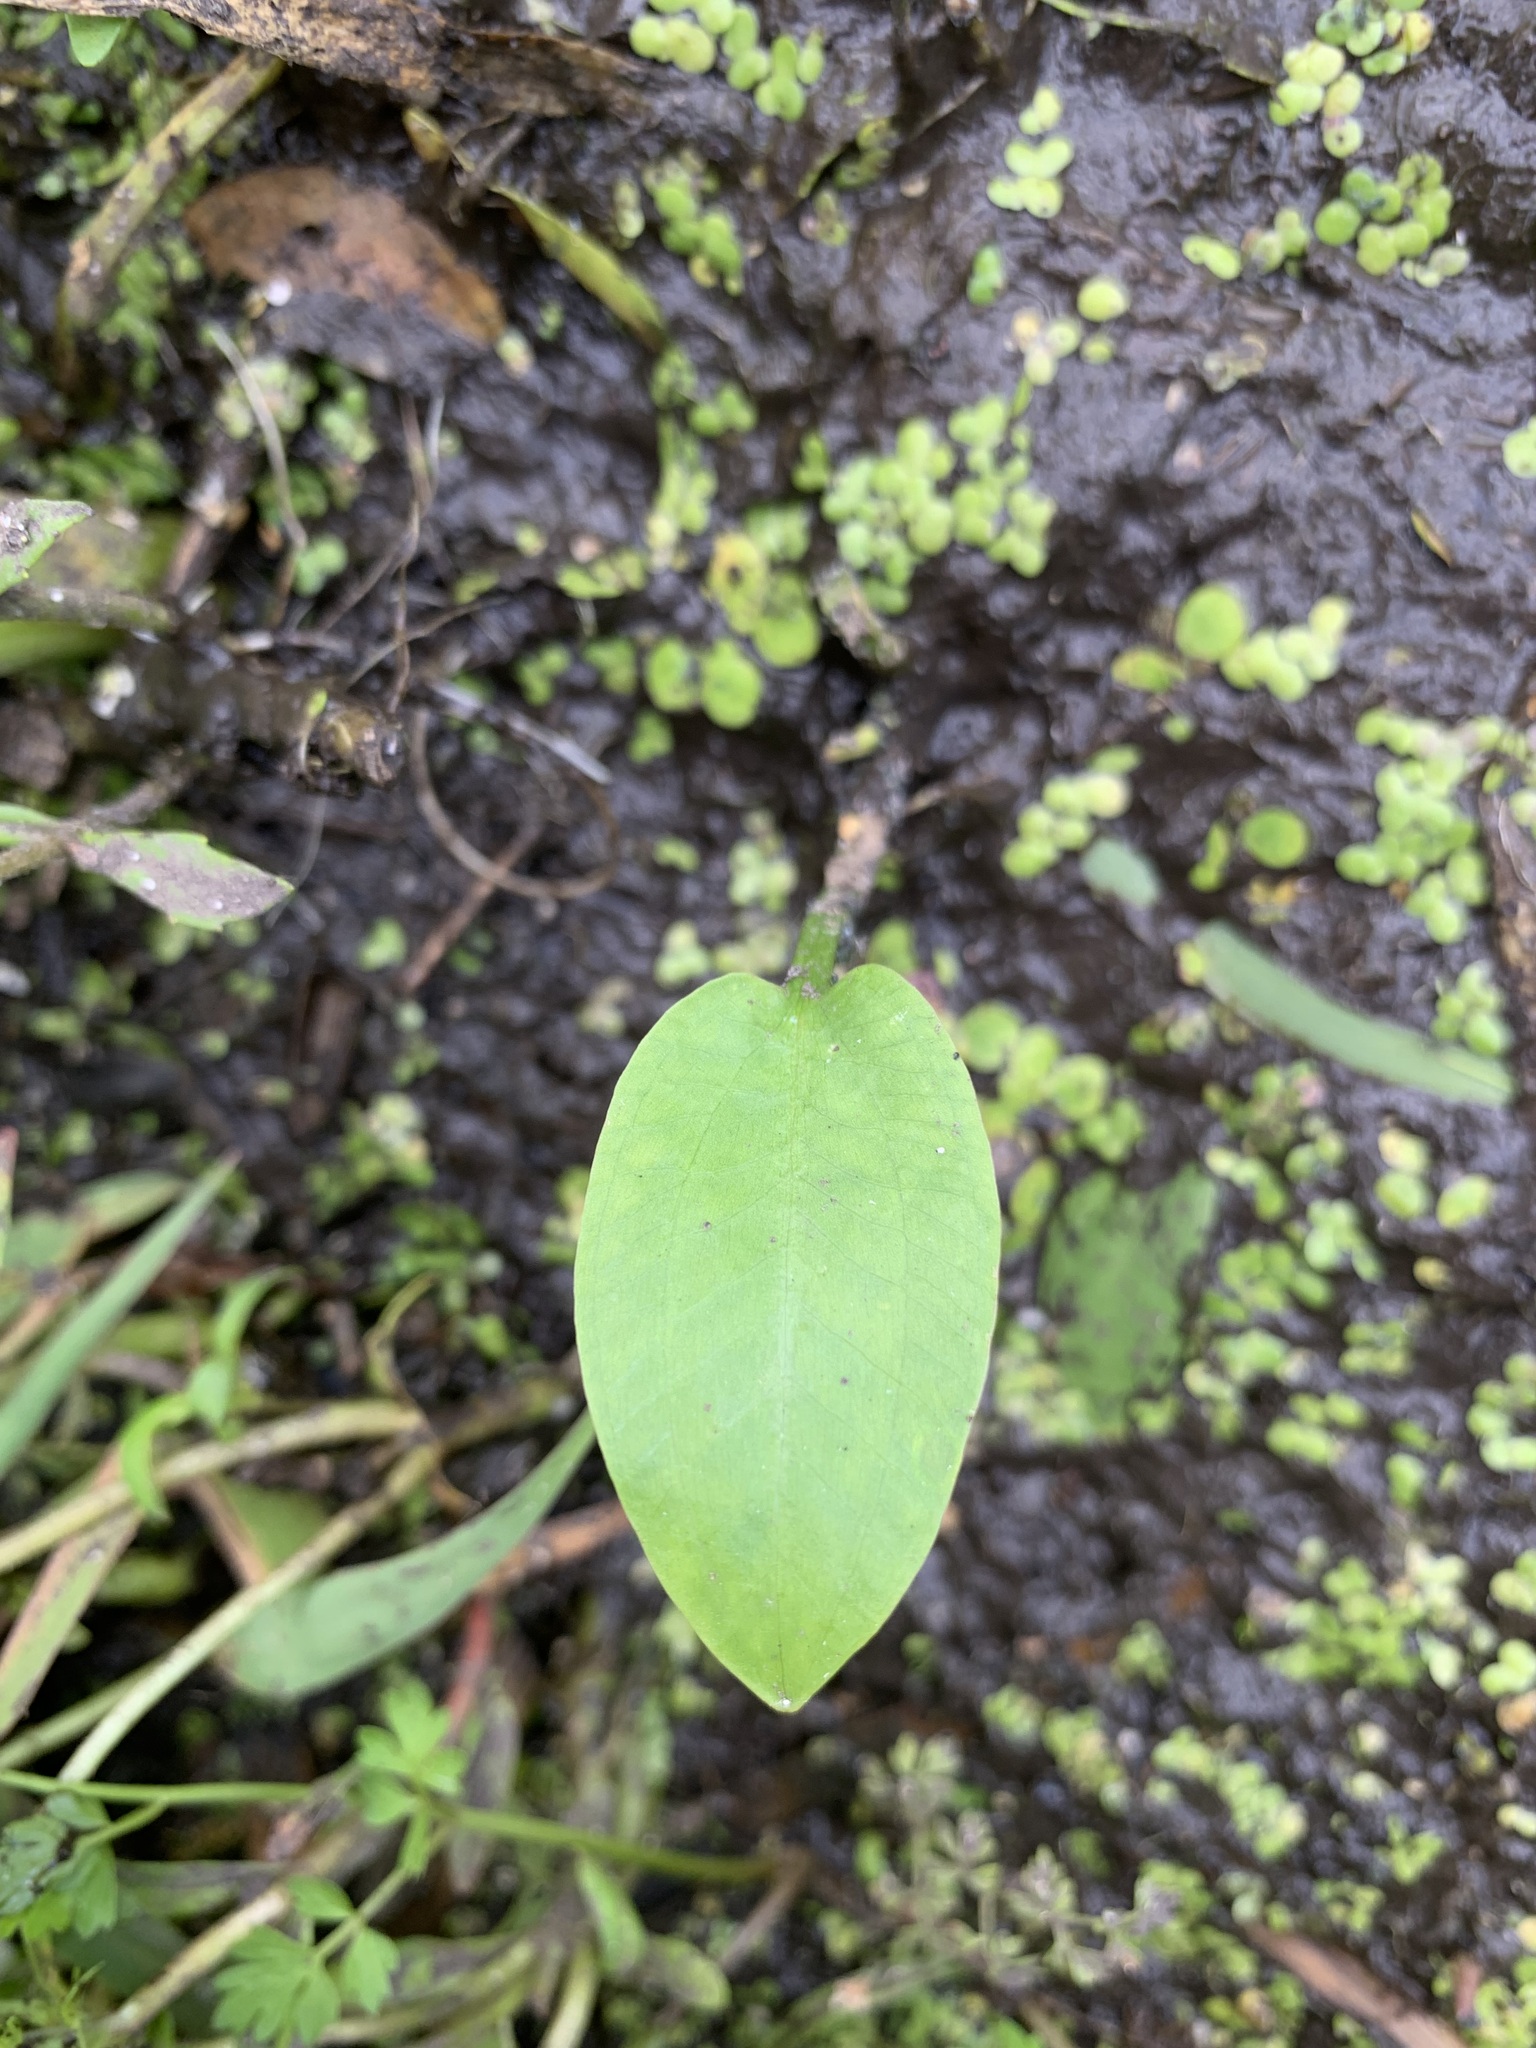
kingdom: Plantae
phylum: Tracheophyta
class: Liliopsida
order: Alismatales
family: Alismataceae
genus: Alisma
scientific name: Alisma plantago-aquatica
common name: Water-plantain
